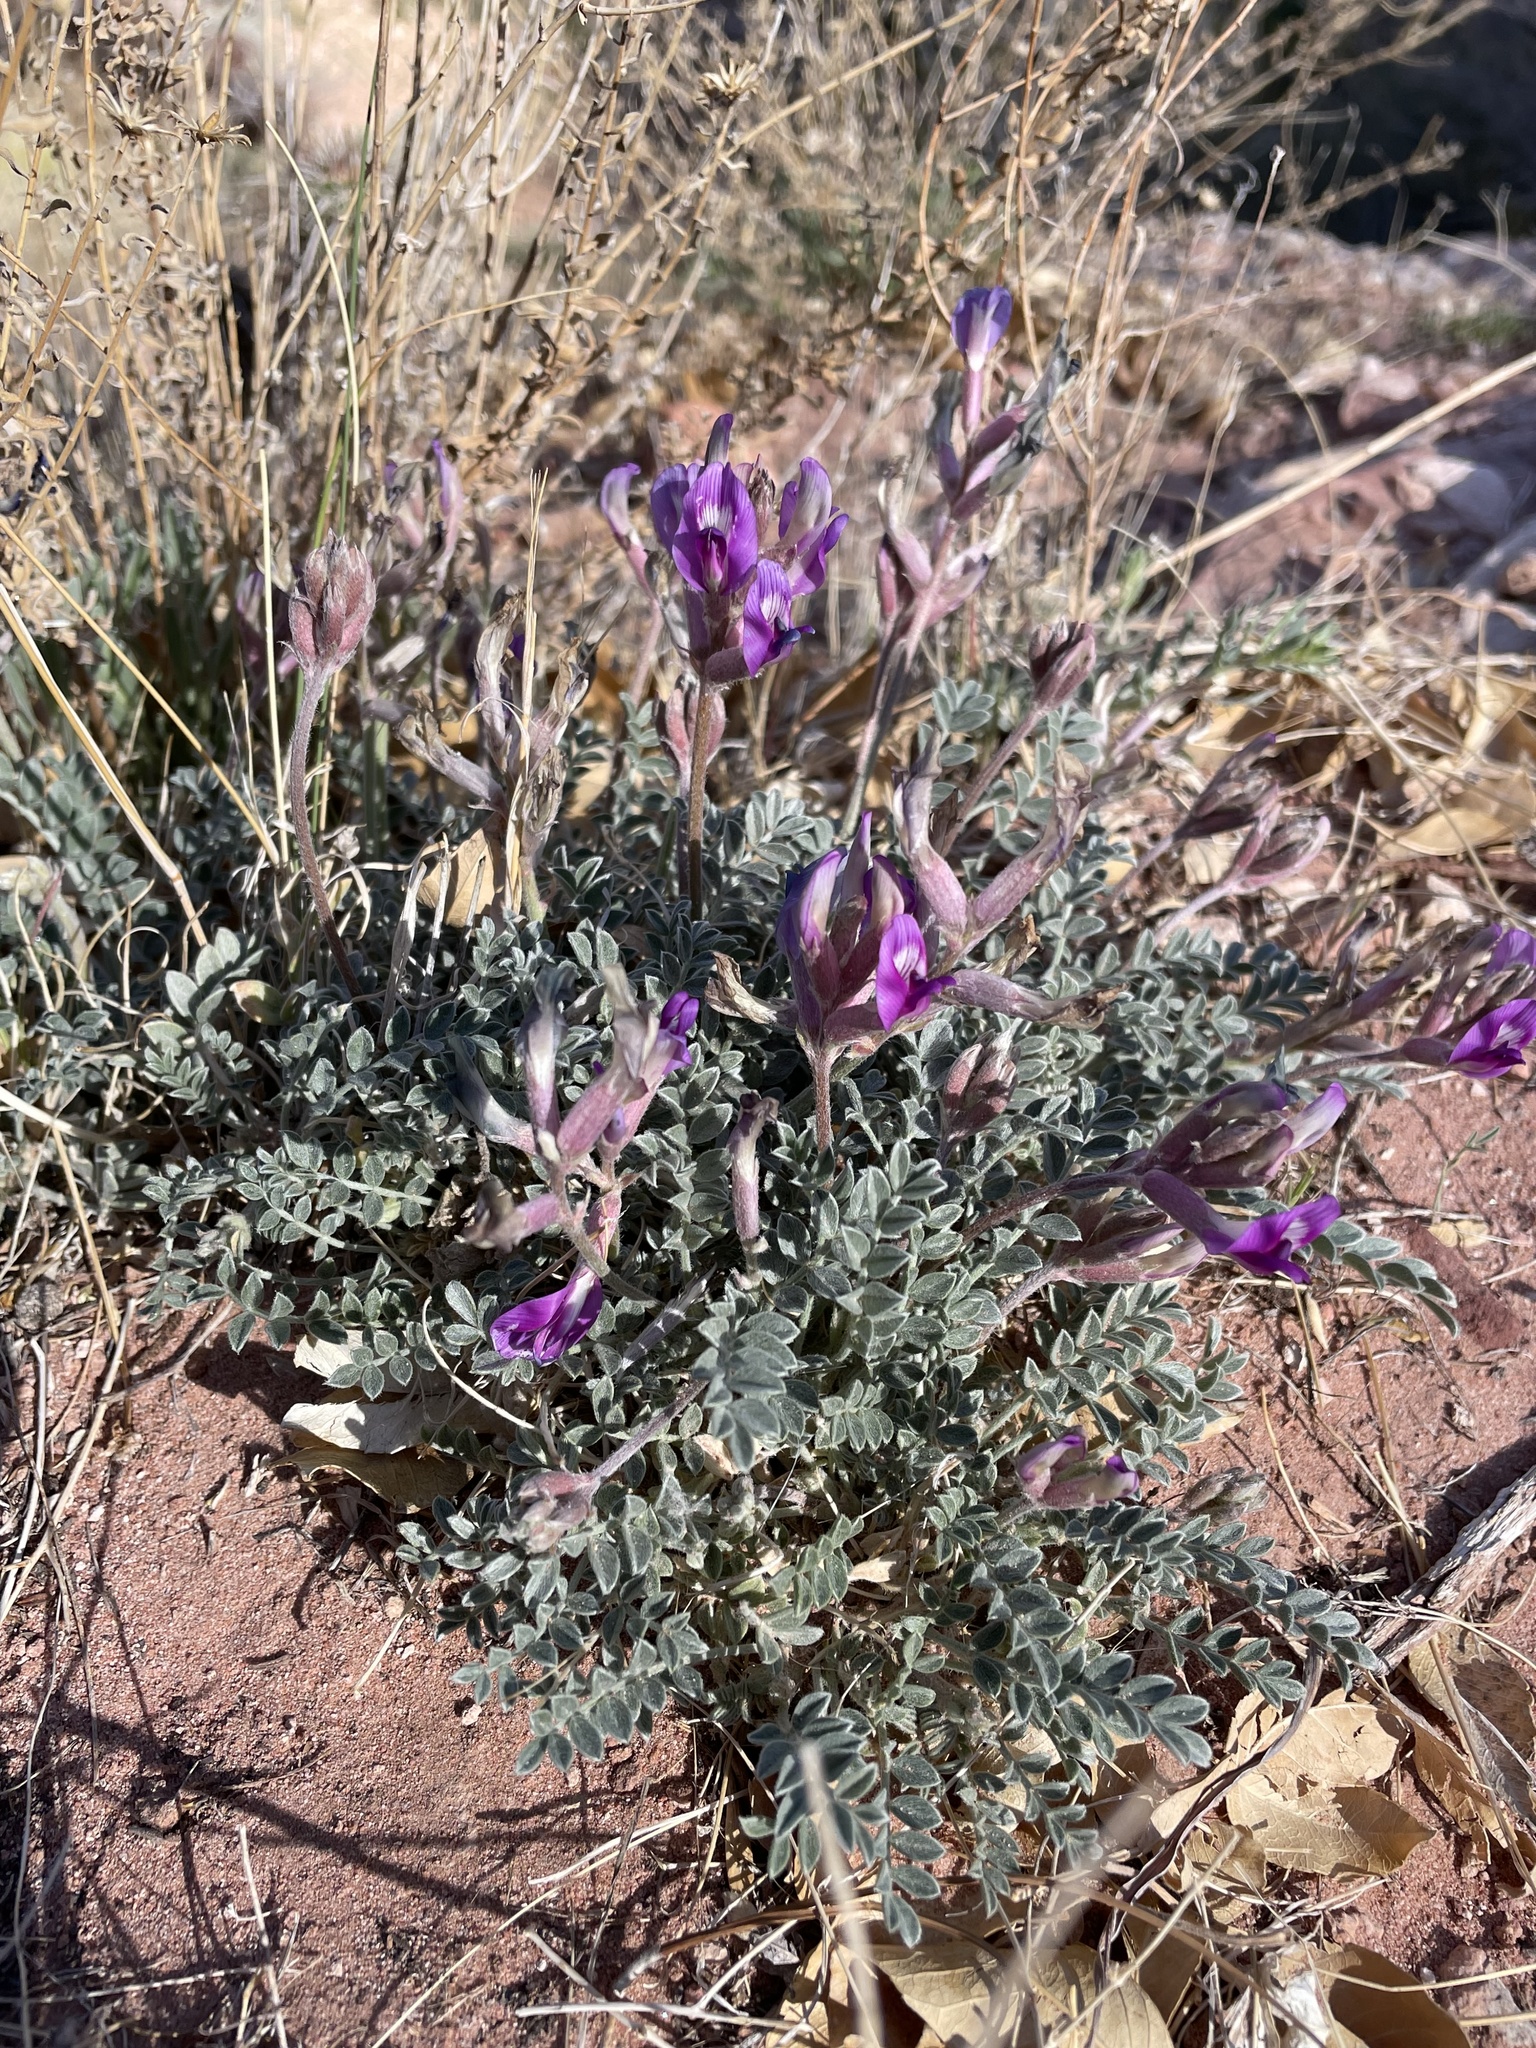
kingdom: Plantae
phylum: Tracheophyta
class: Magnoliopsida
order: Fabales
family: Fabaceae
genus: Astragalus
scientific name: Astragalus amphioxys
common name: Crescent milk-vetch
